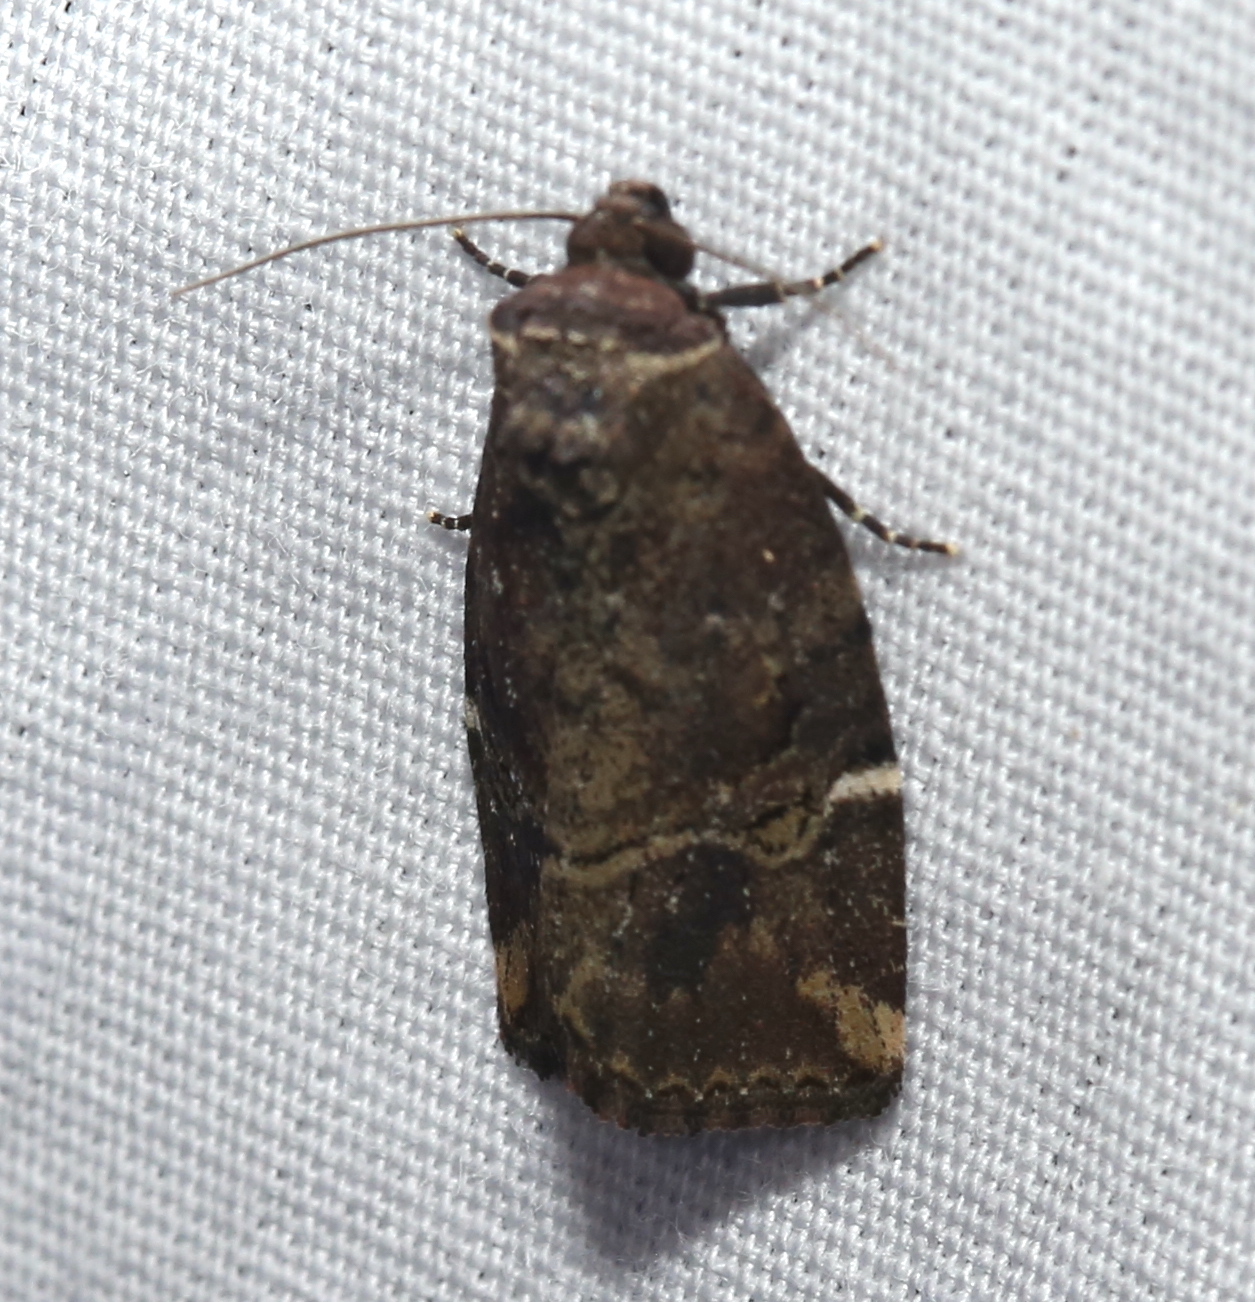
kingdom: Animalia
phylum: Arthropoda
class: Insecta
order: Lepidoptera
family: Noctuidae
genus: Elaphria
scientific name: Elaphria versicolor
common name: Fir harlequin
